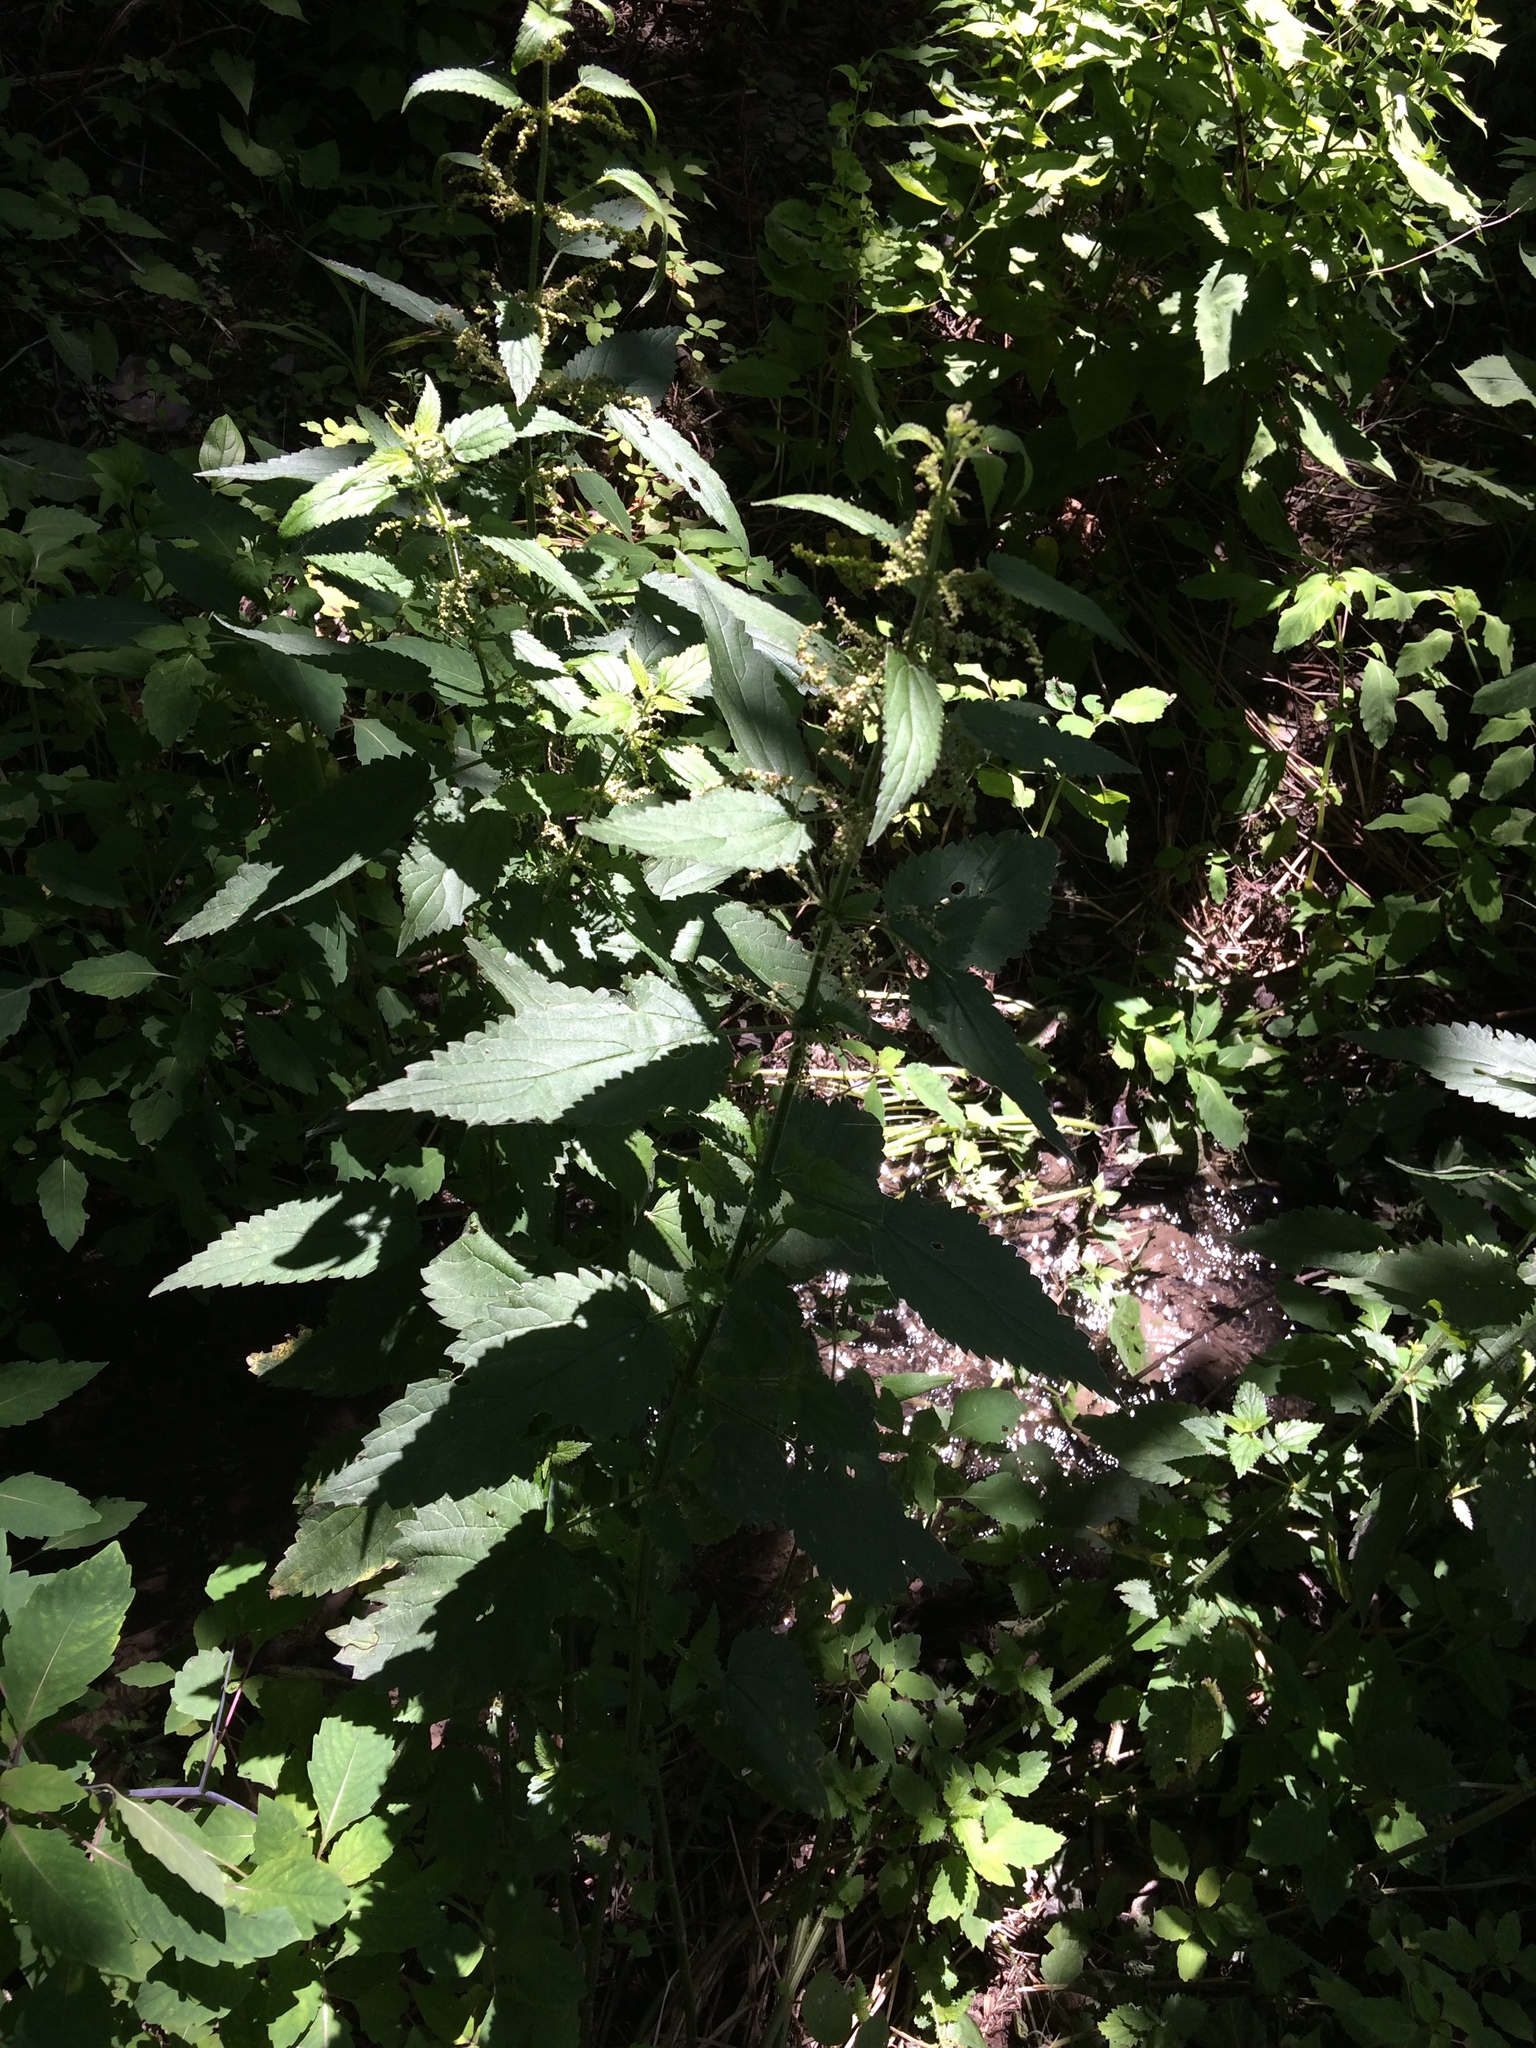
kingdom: Plantae
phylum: Tracheophyta
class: Magnoliopsida
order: Rosales
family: Urticaceae
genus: Urtica
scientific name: Urtica dioica
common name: Common nettle
